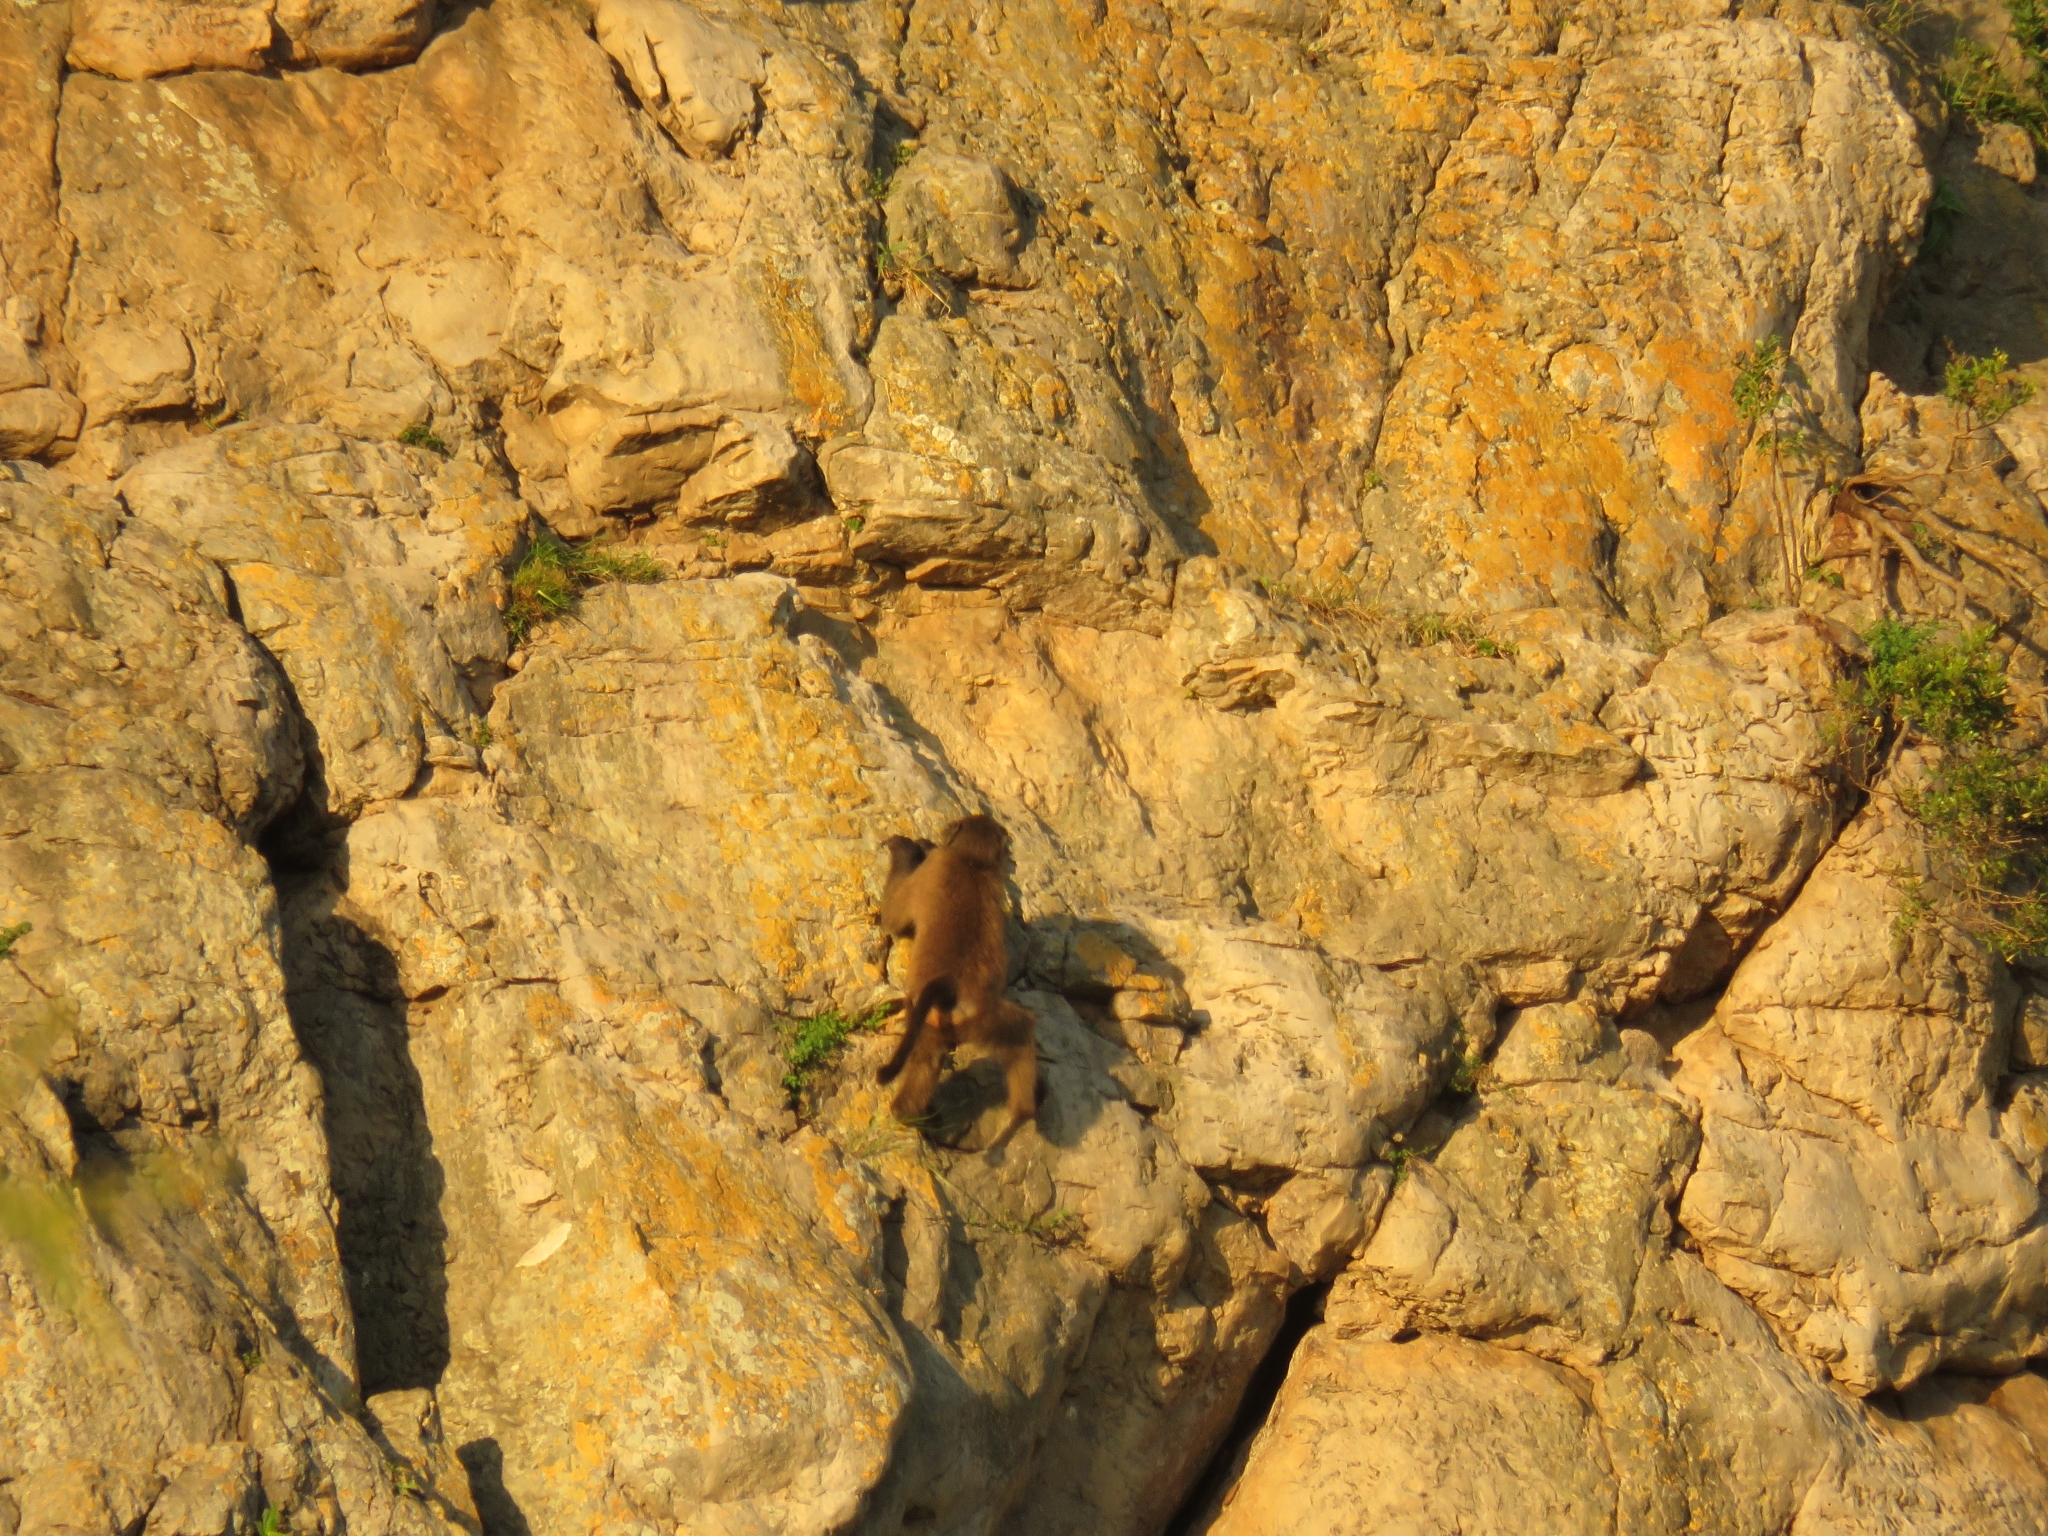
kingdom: Animalia
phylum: Chordata
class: Mammalia
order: Primates
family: Cercopithecidae
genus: Papio
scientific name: Papio ursinus
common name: Chacma baboon
